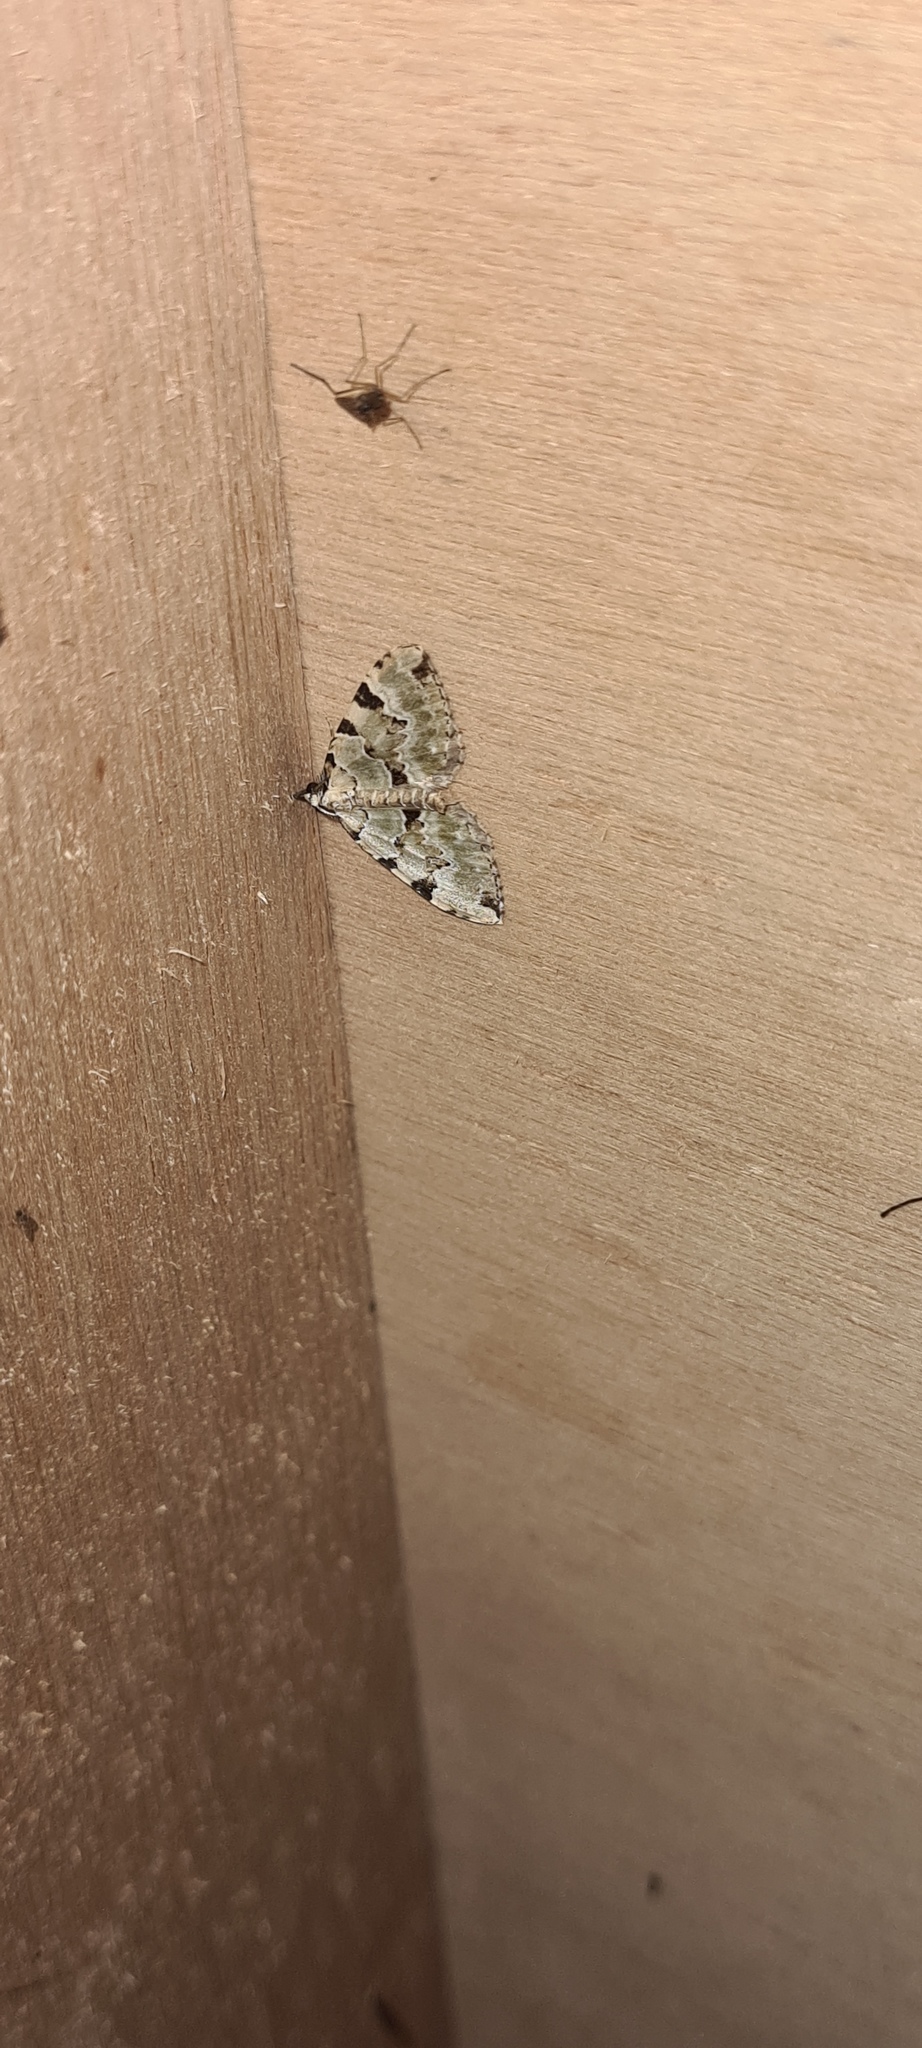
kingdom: Animalia
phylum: Arthropoda
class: Insecta
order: Lepidoptera
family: Geometridae
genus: Colostygia
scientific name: Colostygia pectinataria
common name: Green carpet
